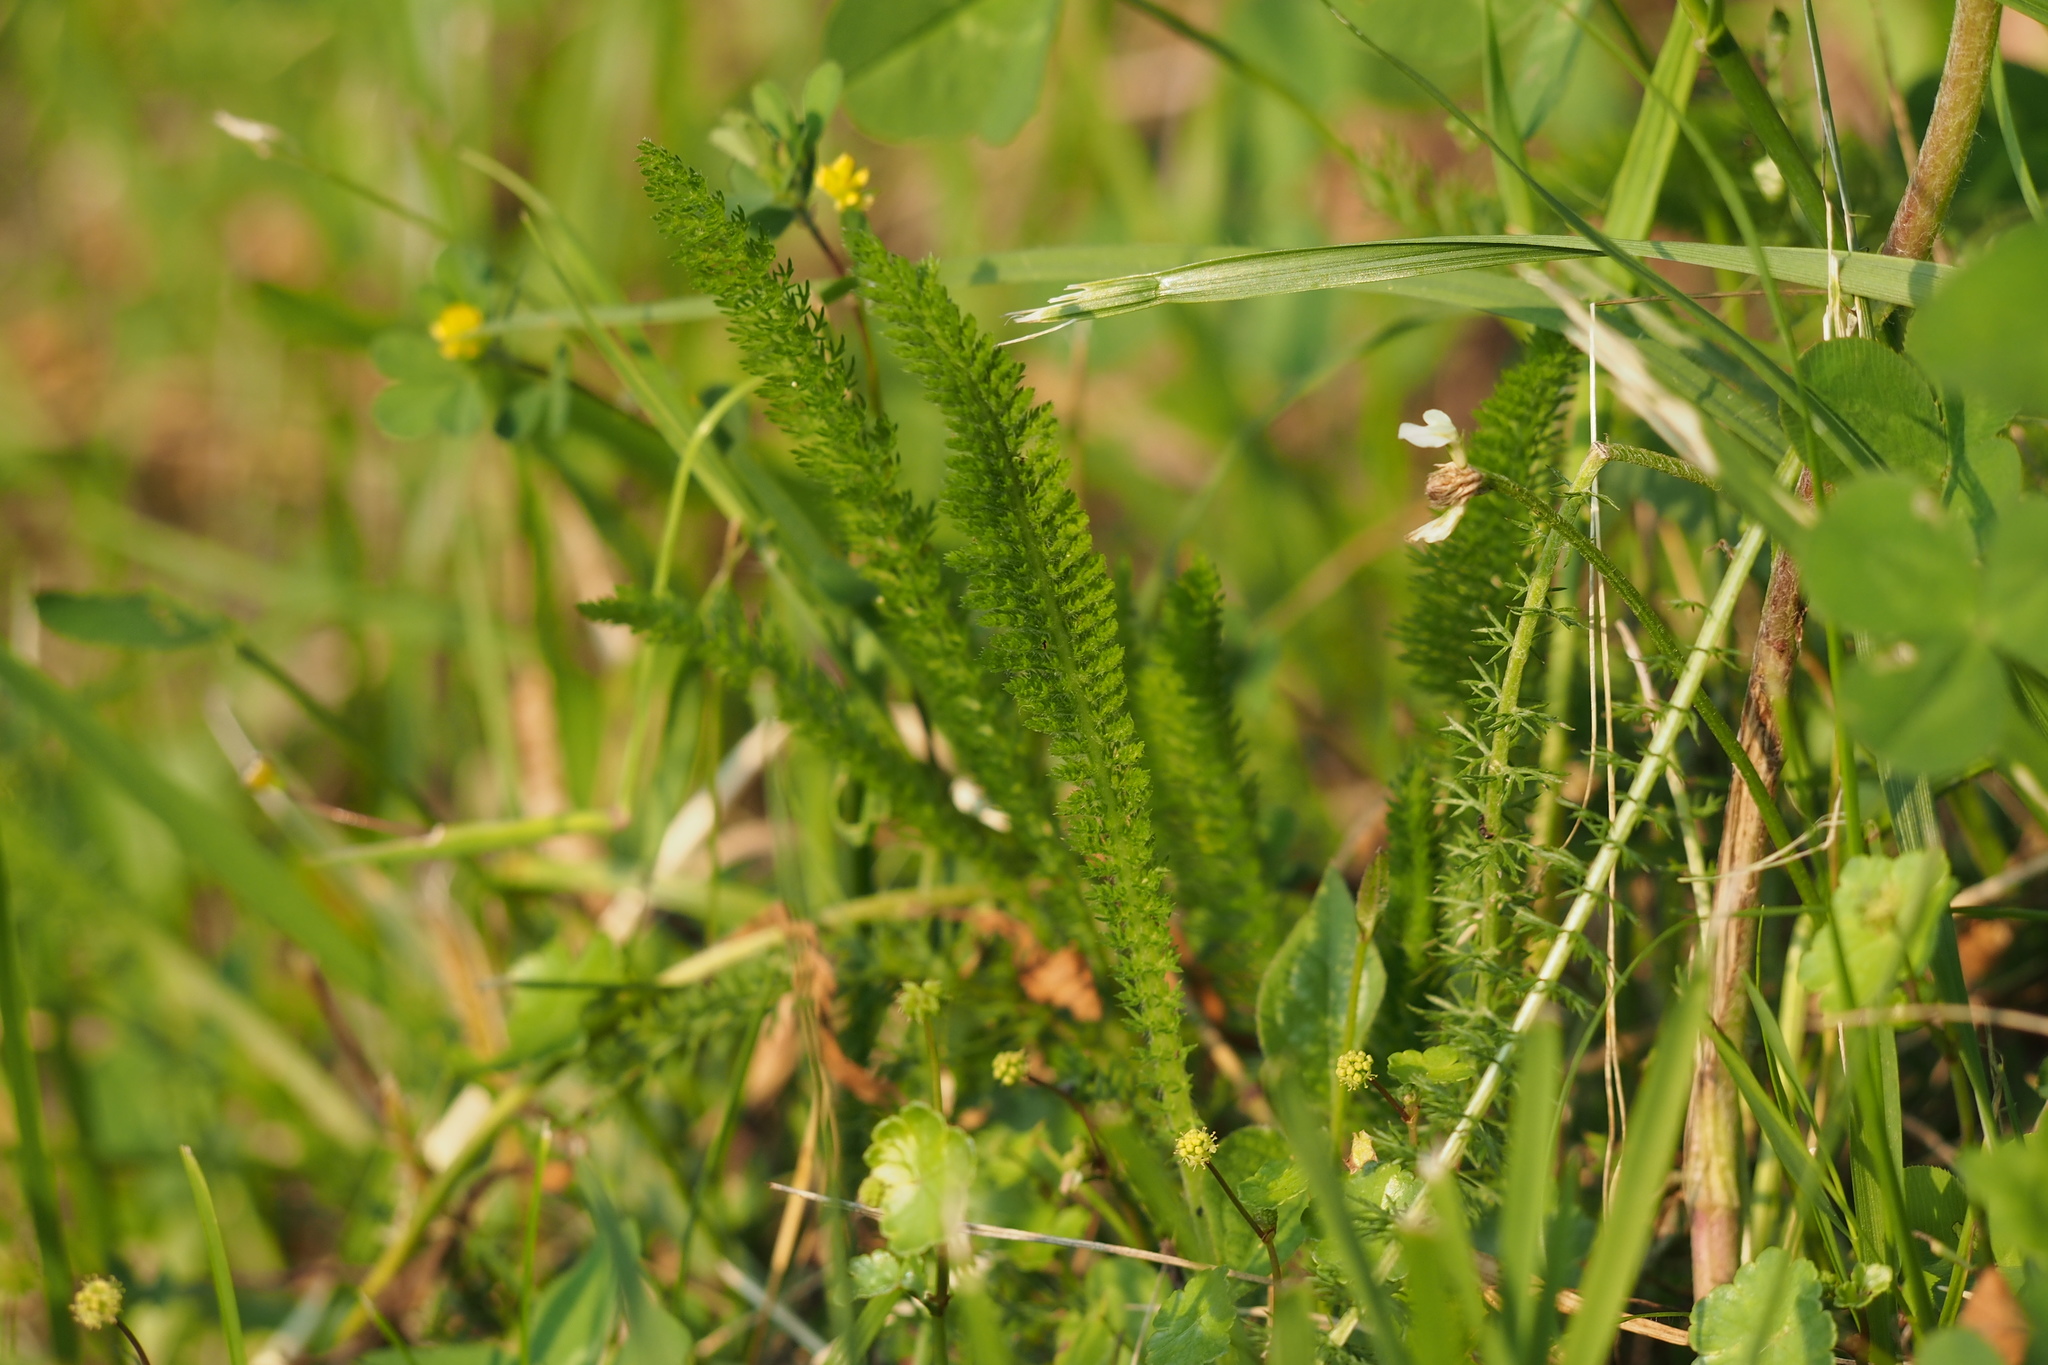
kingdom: Plantae
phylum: Tracheophyta
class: Magnoliopsida
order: Asterales
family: Asteraceae
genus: Achillea
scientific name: Achillea millefolium
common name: Yarrow
